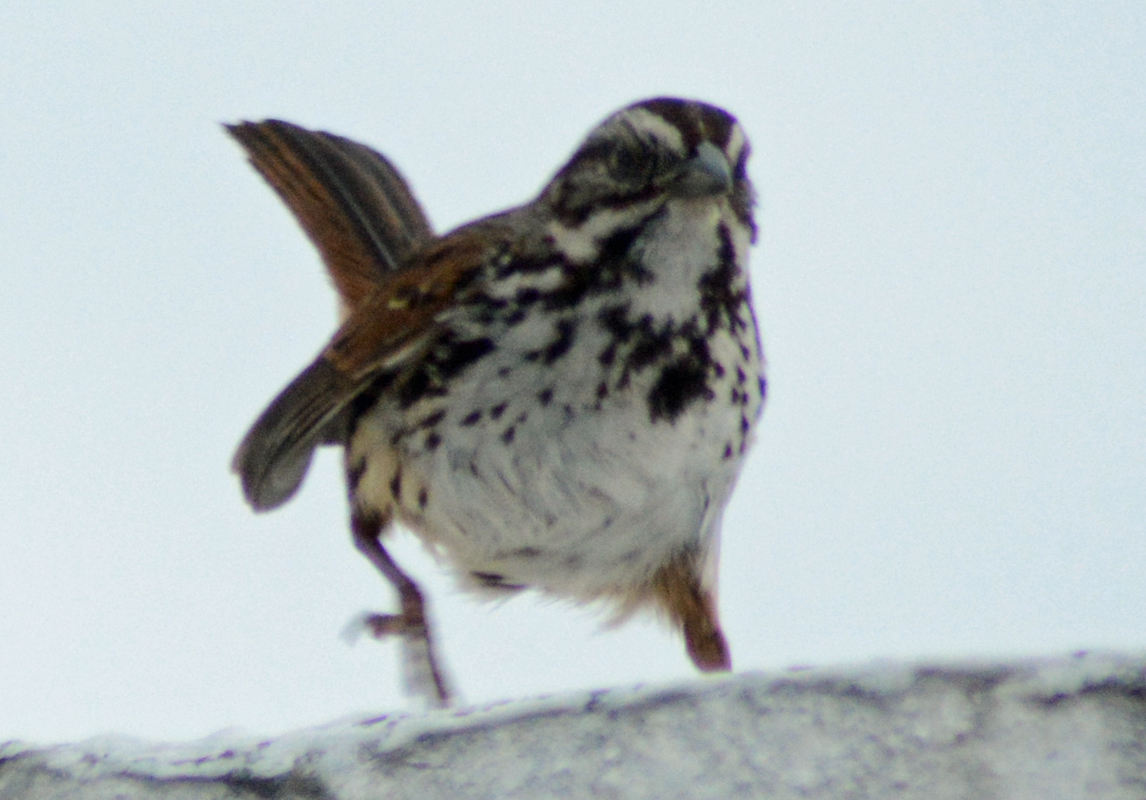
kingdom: Animalia
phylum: Chordata
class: Aves
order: Passeriformes
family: Passerellidae
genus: Melospiza
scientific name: Melospiza melodia
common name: Song sparrow
